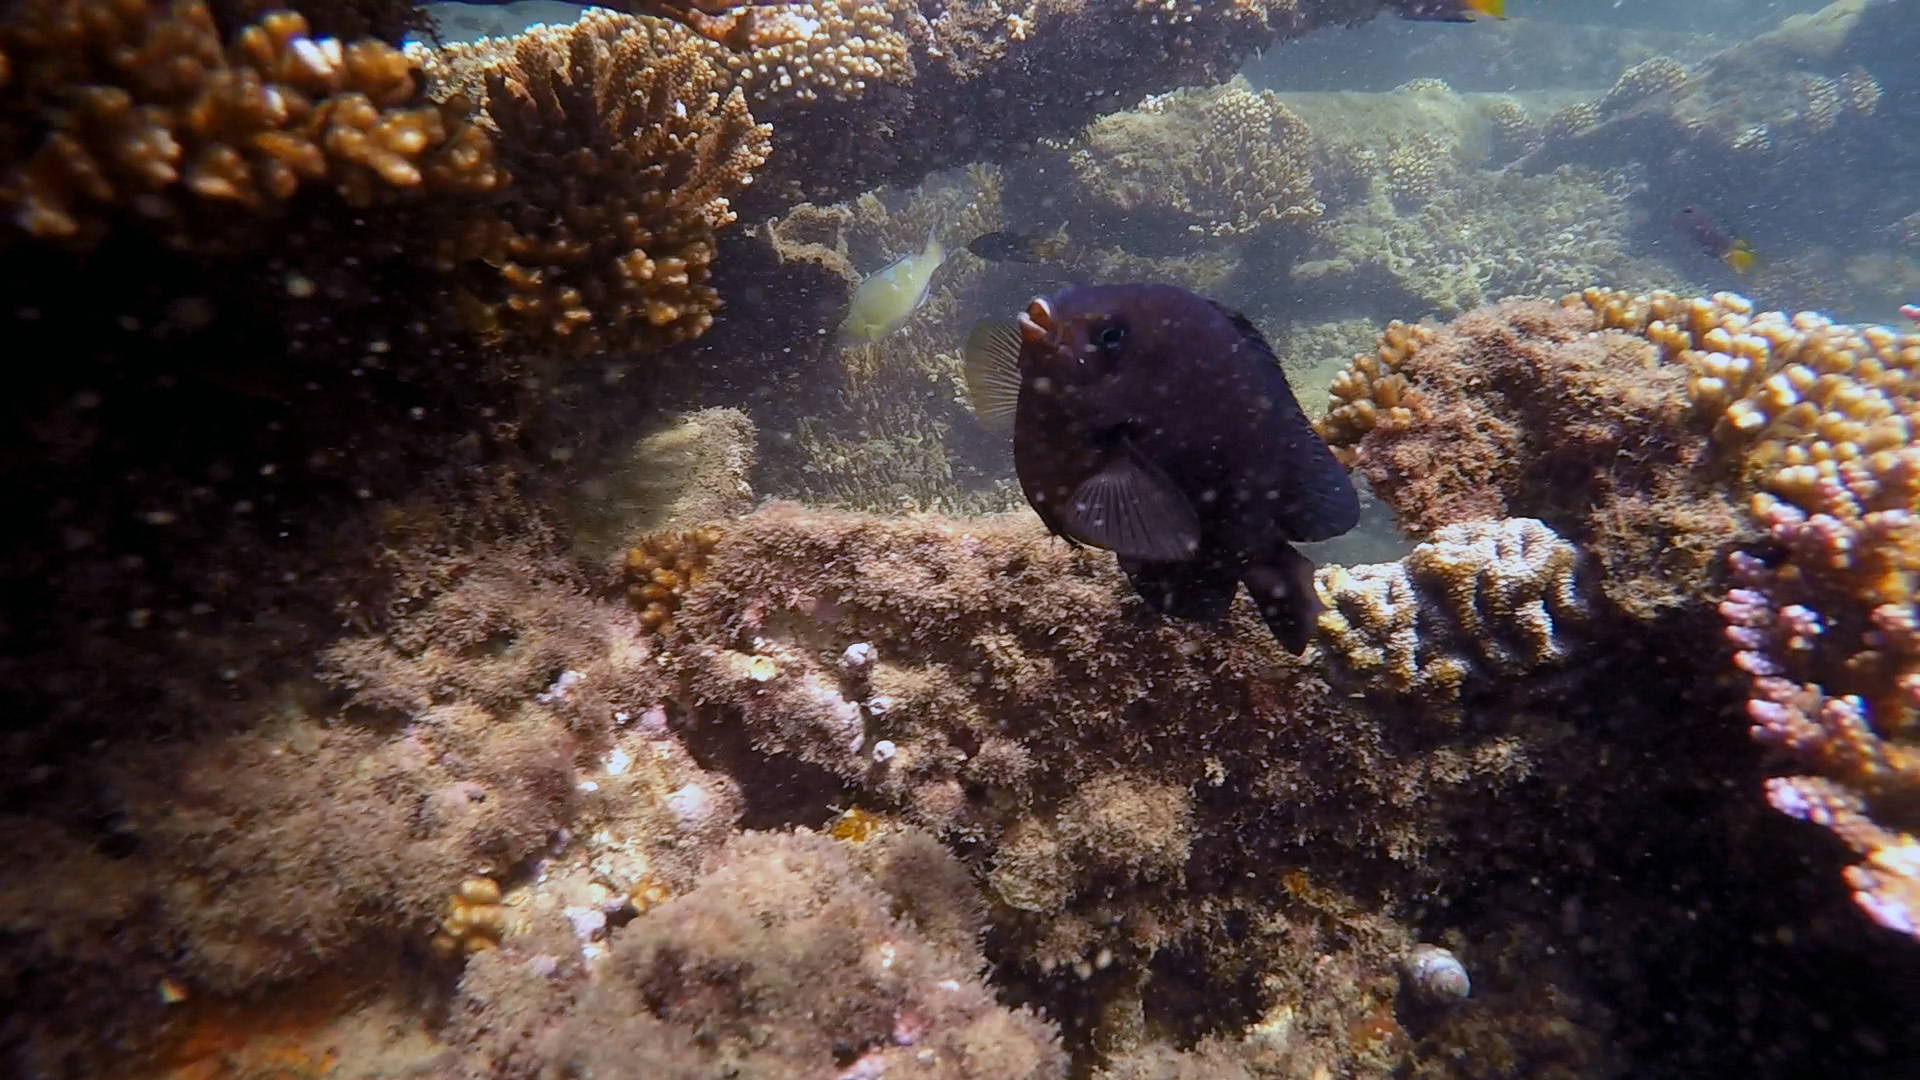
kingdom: Animalia
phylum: Chordata
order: Perciformes
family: Pomacentridae
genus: Neoglyphidodon
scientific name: Neoglyphidodon melas
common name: Black damsel
